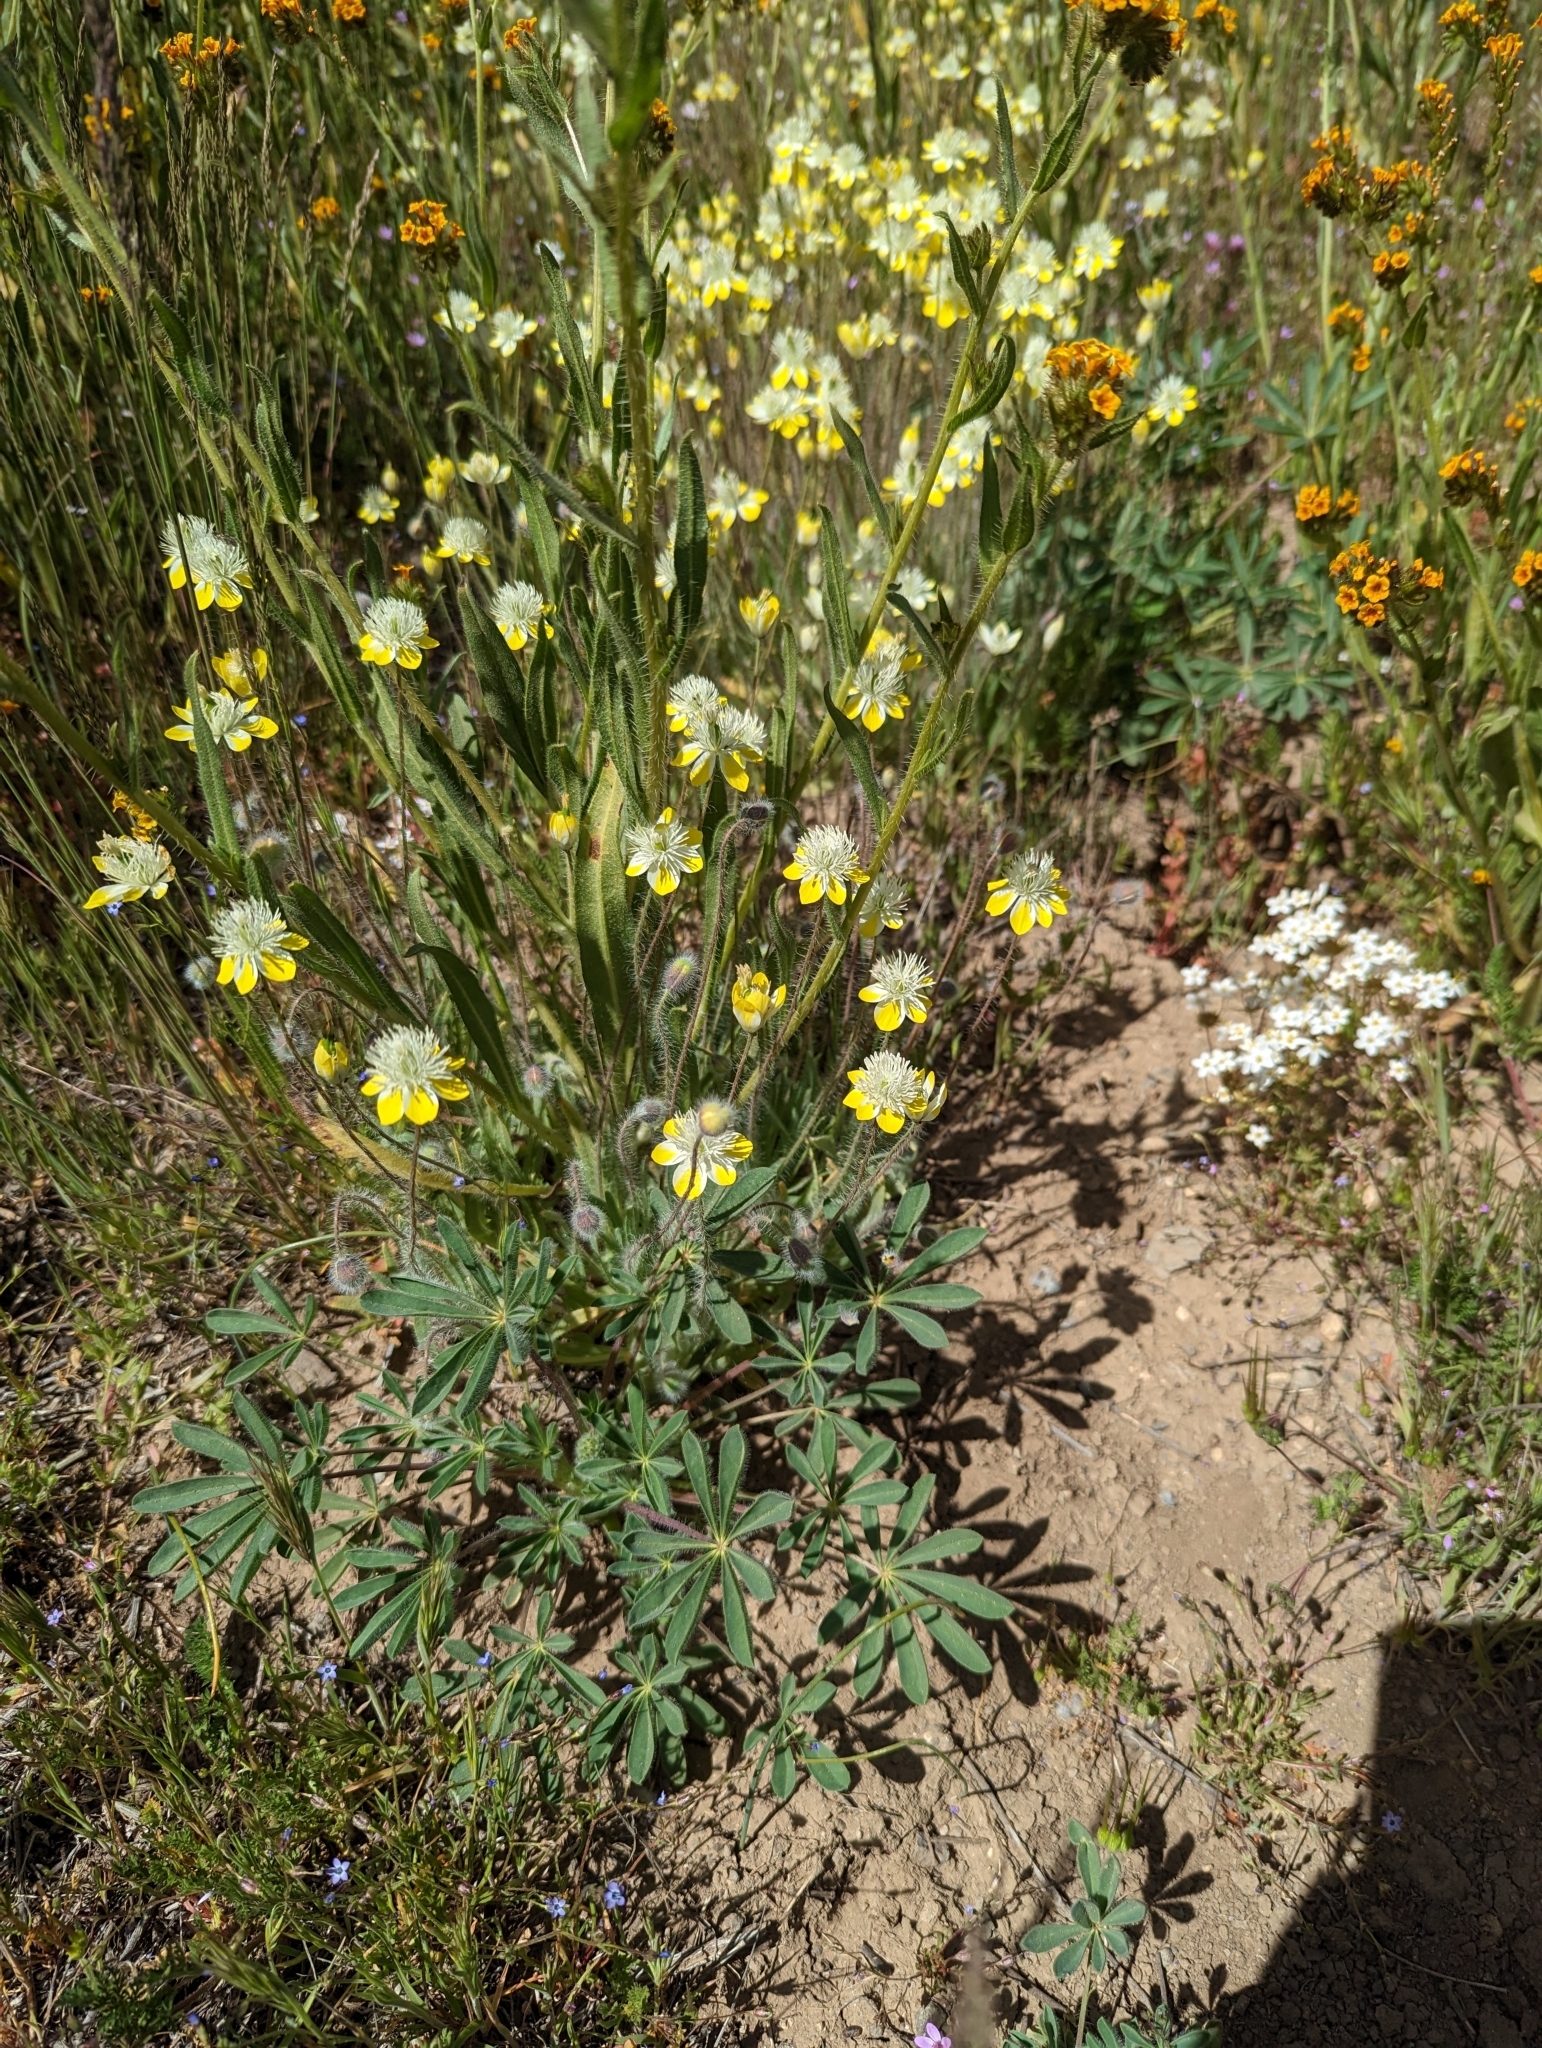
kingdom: Plantae
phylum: Tracheophyta
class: Magnoliopsida
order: Ranunculales
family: Papaveraceae
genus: Platystemon
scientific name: Platystemon californicus
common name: Cream-cups
